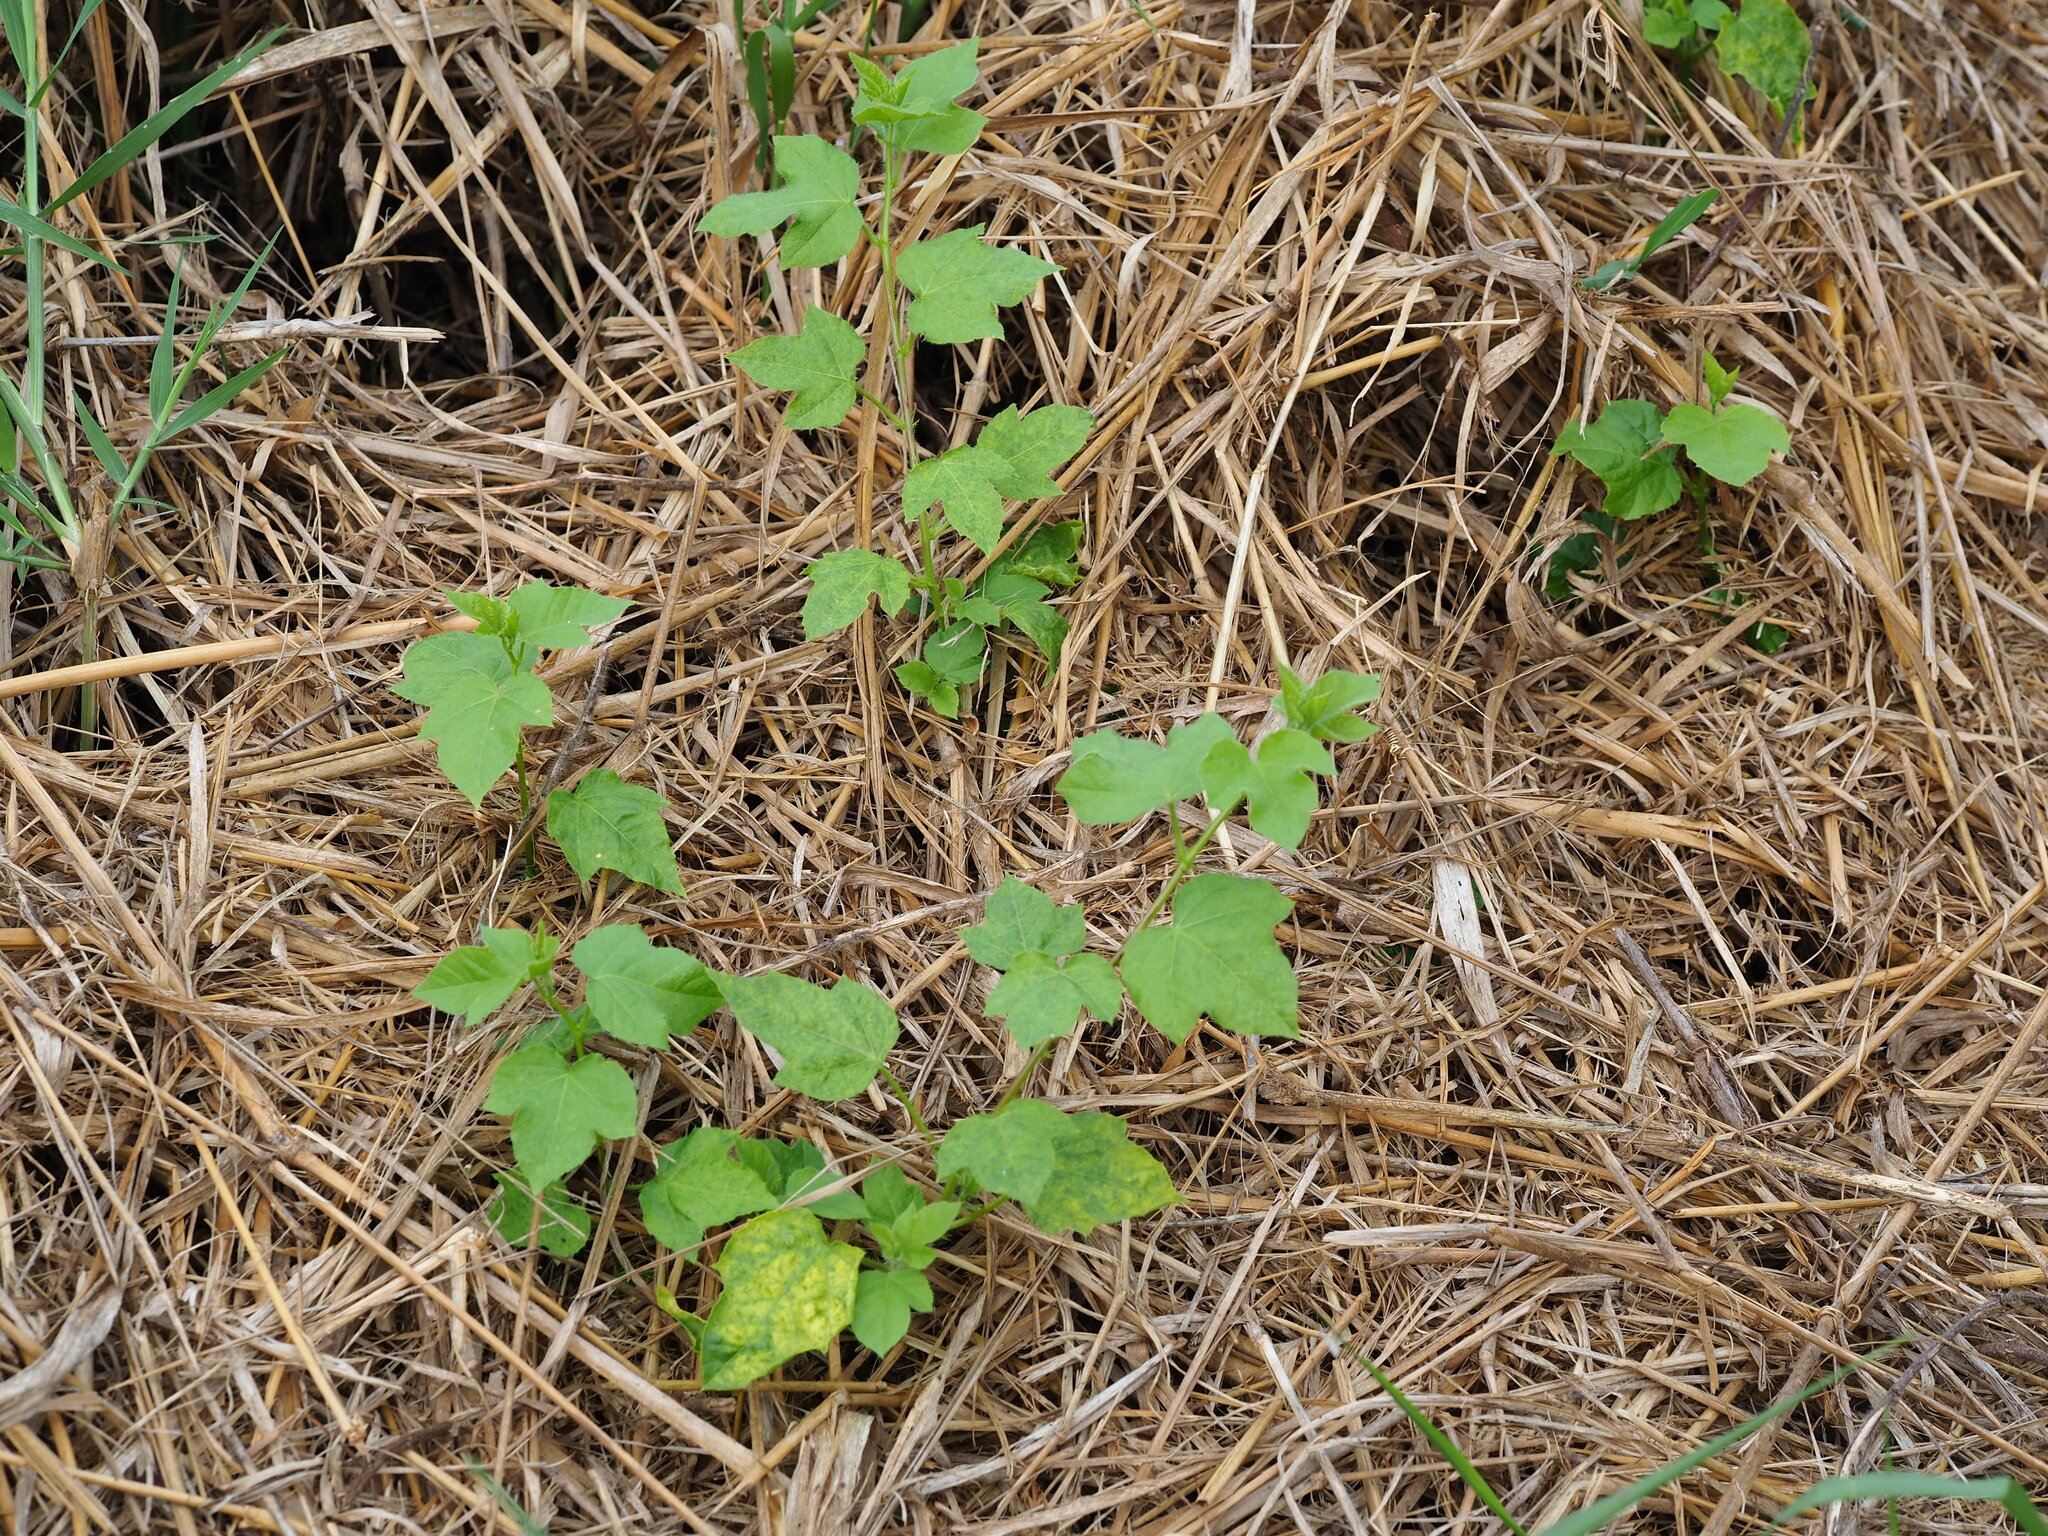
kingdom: Plantae
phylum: Tracheophyta
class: Magnoliopsida
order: Malpighiales
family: Passifloraceae
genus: Passiflora
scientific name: Passiflora vesicaria
